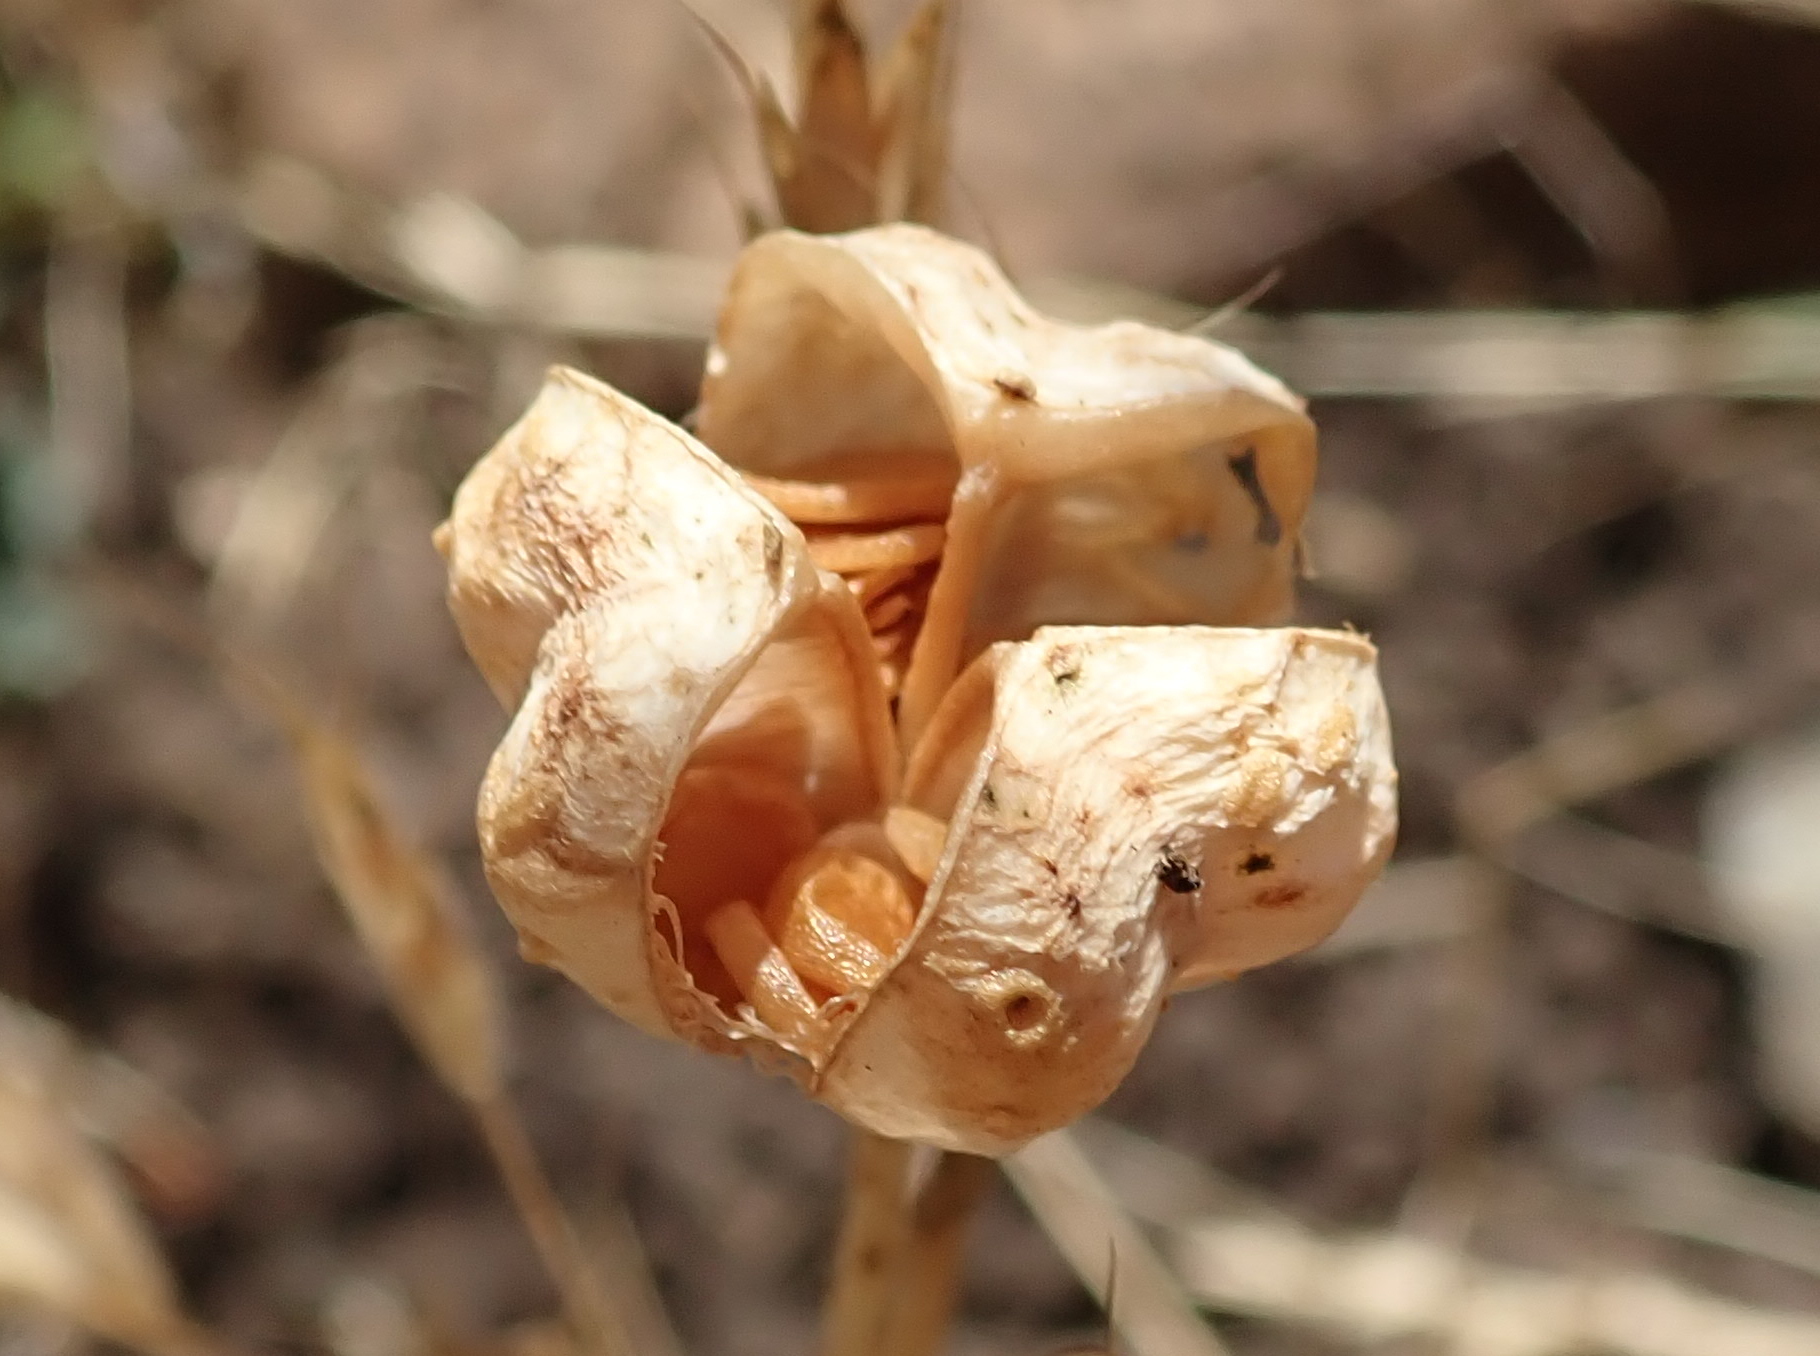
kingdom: Plantae
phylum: Tracheophyta
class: Liliopsida
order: Liliales
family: Liliaceae
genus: Fritillaria
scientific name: Fritillaria liliacea
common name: Fragrant fritillary
